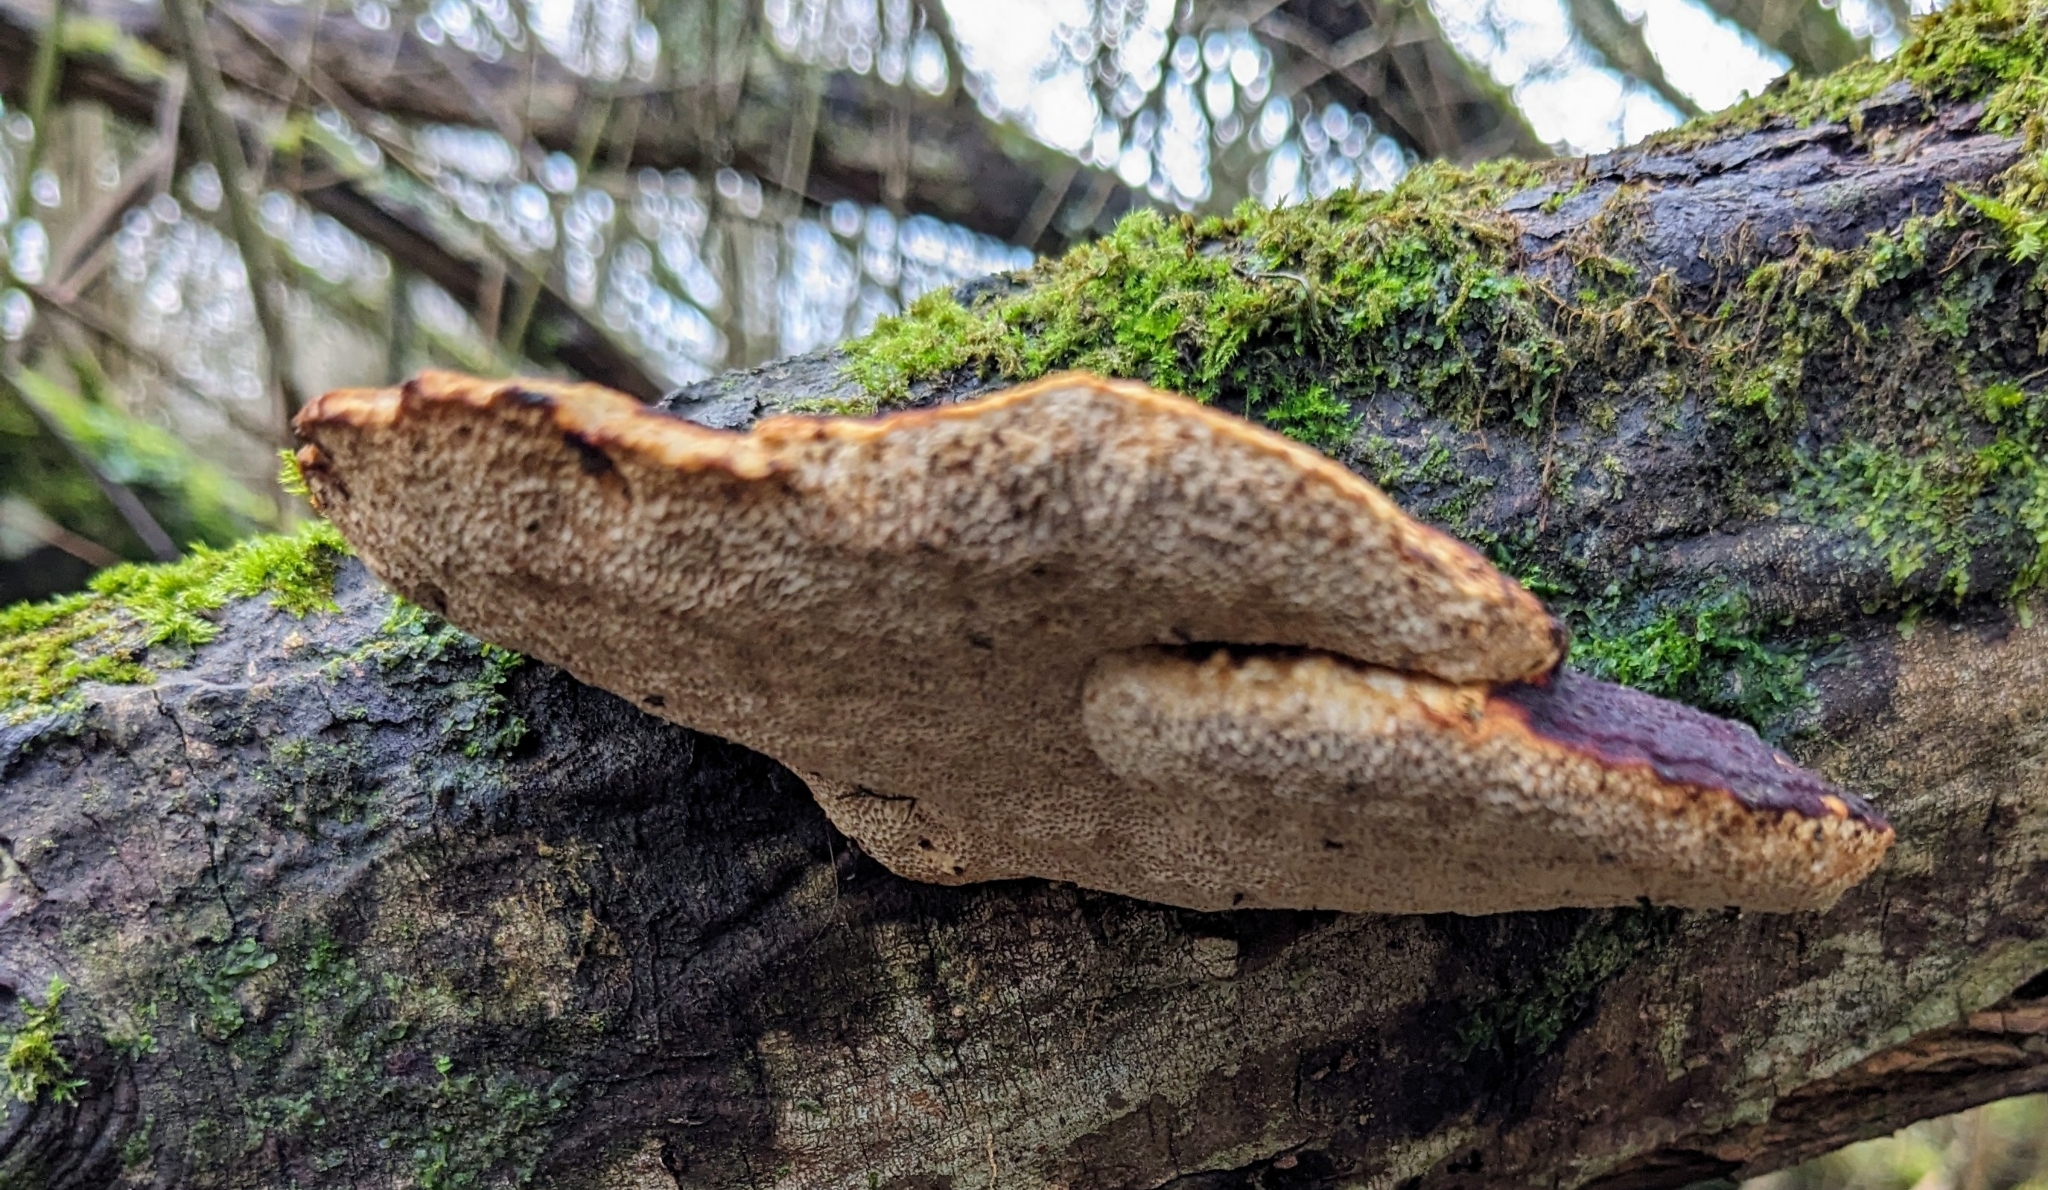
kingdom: Fungi
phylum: Basidiomycota
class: Agaricomycetes
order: Polyporales
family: Polyporaceae
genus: Daedaleopsis
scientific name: Daedaleopsis confragosa
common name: Blushing bracket
